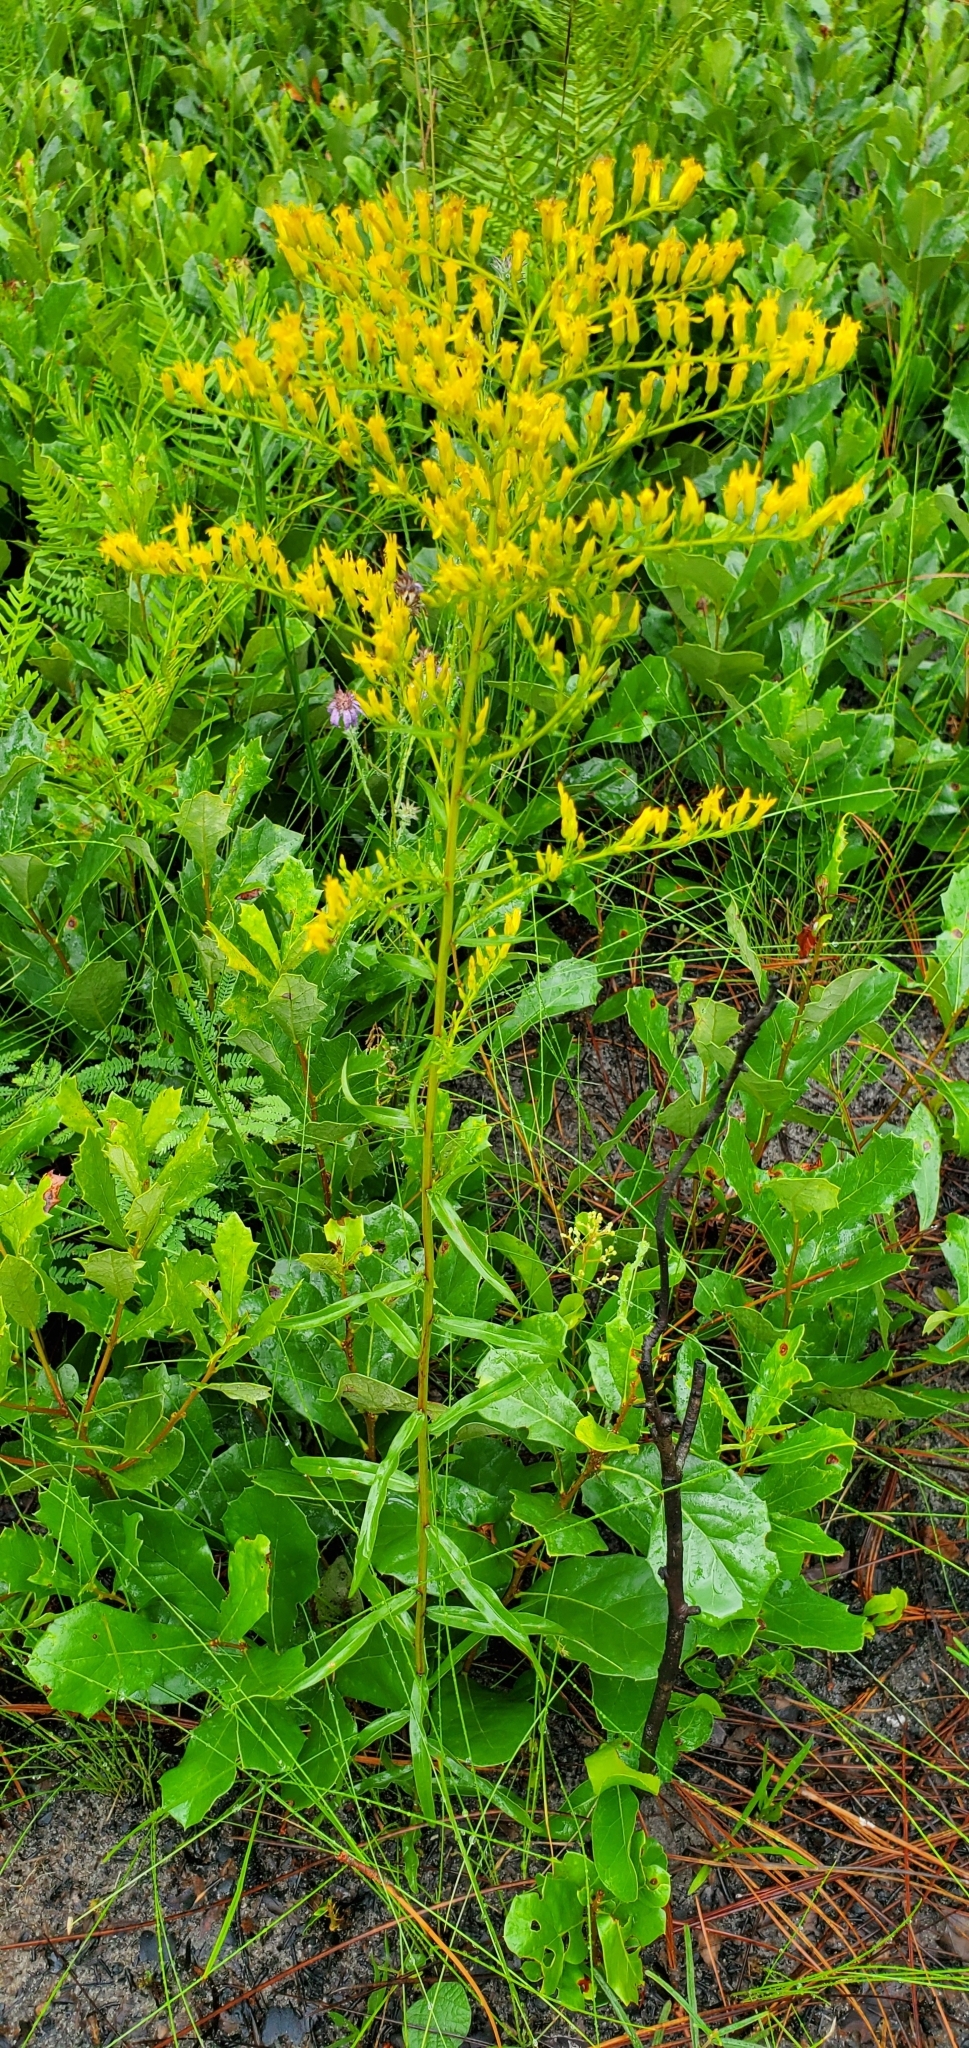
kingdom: Plantae
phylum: Tracheophyta
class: Magnoliopsida
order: Asterales
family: Asteraceae
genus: Solidago
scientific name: Solidago odora
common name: Anise-scented goldenrod
